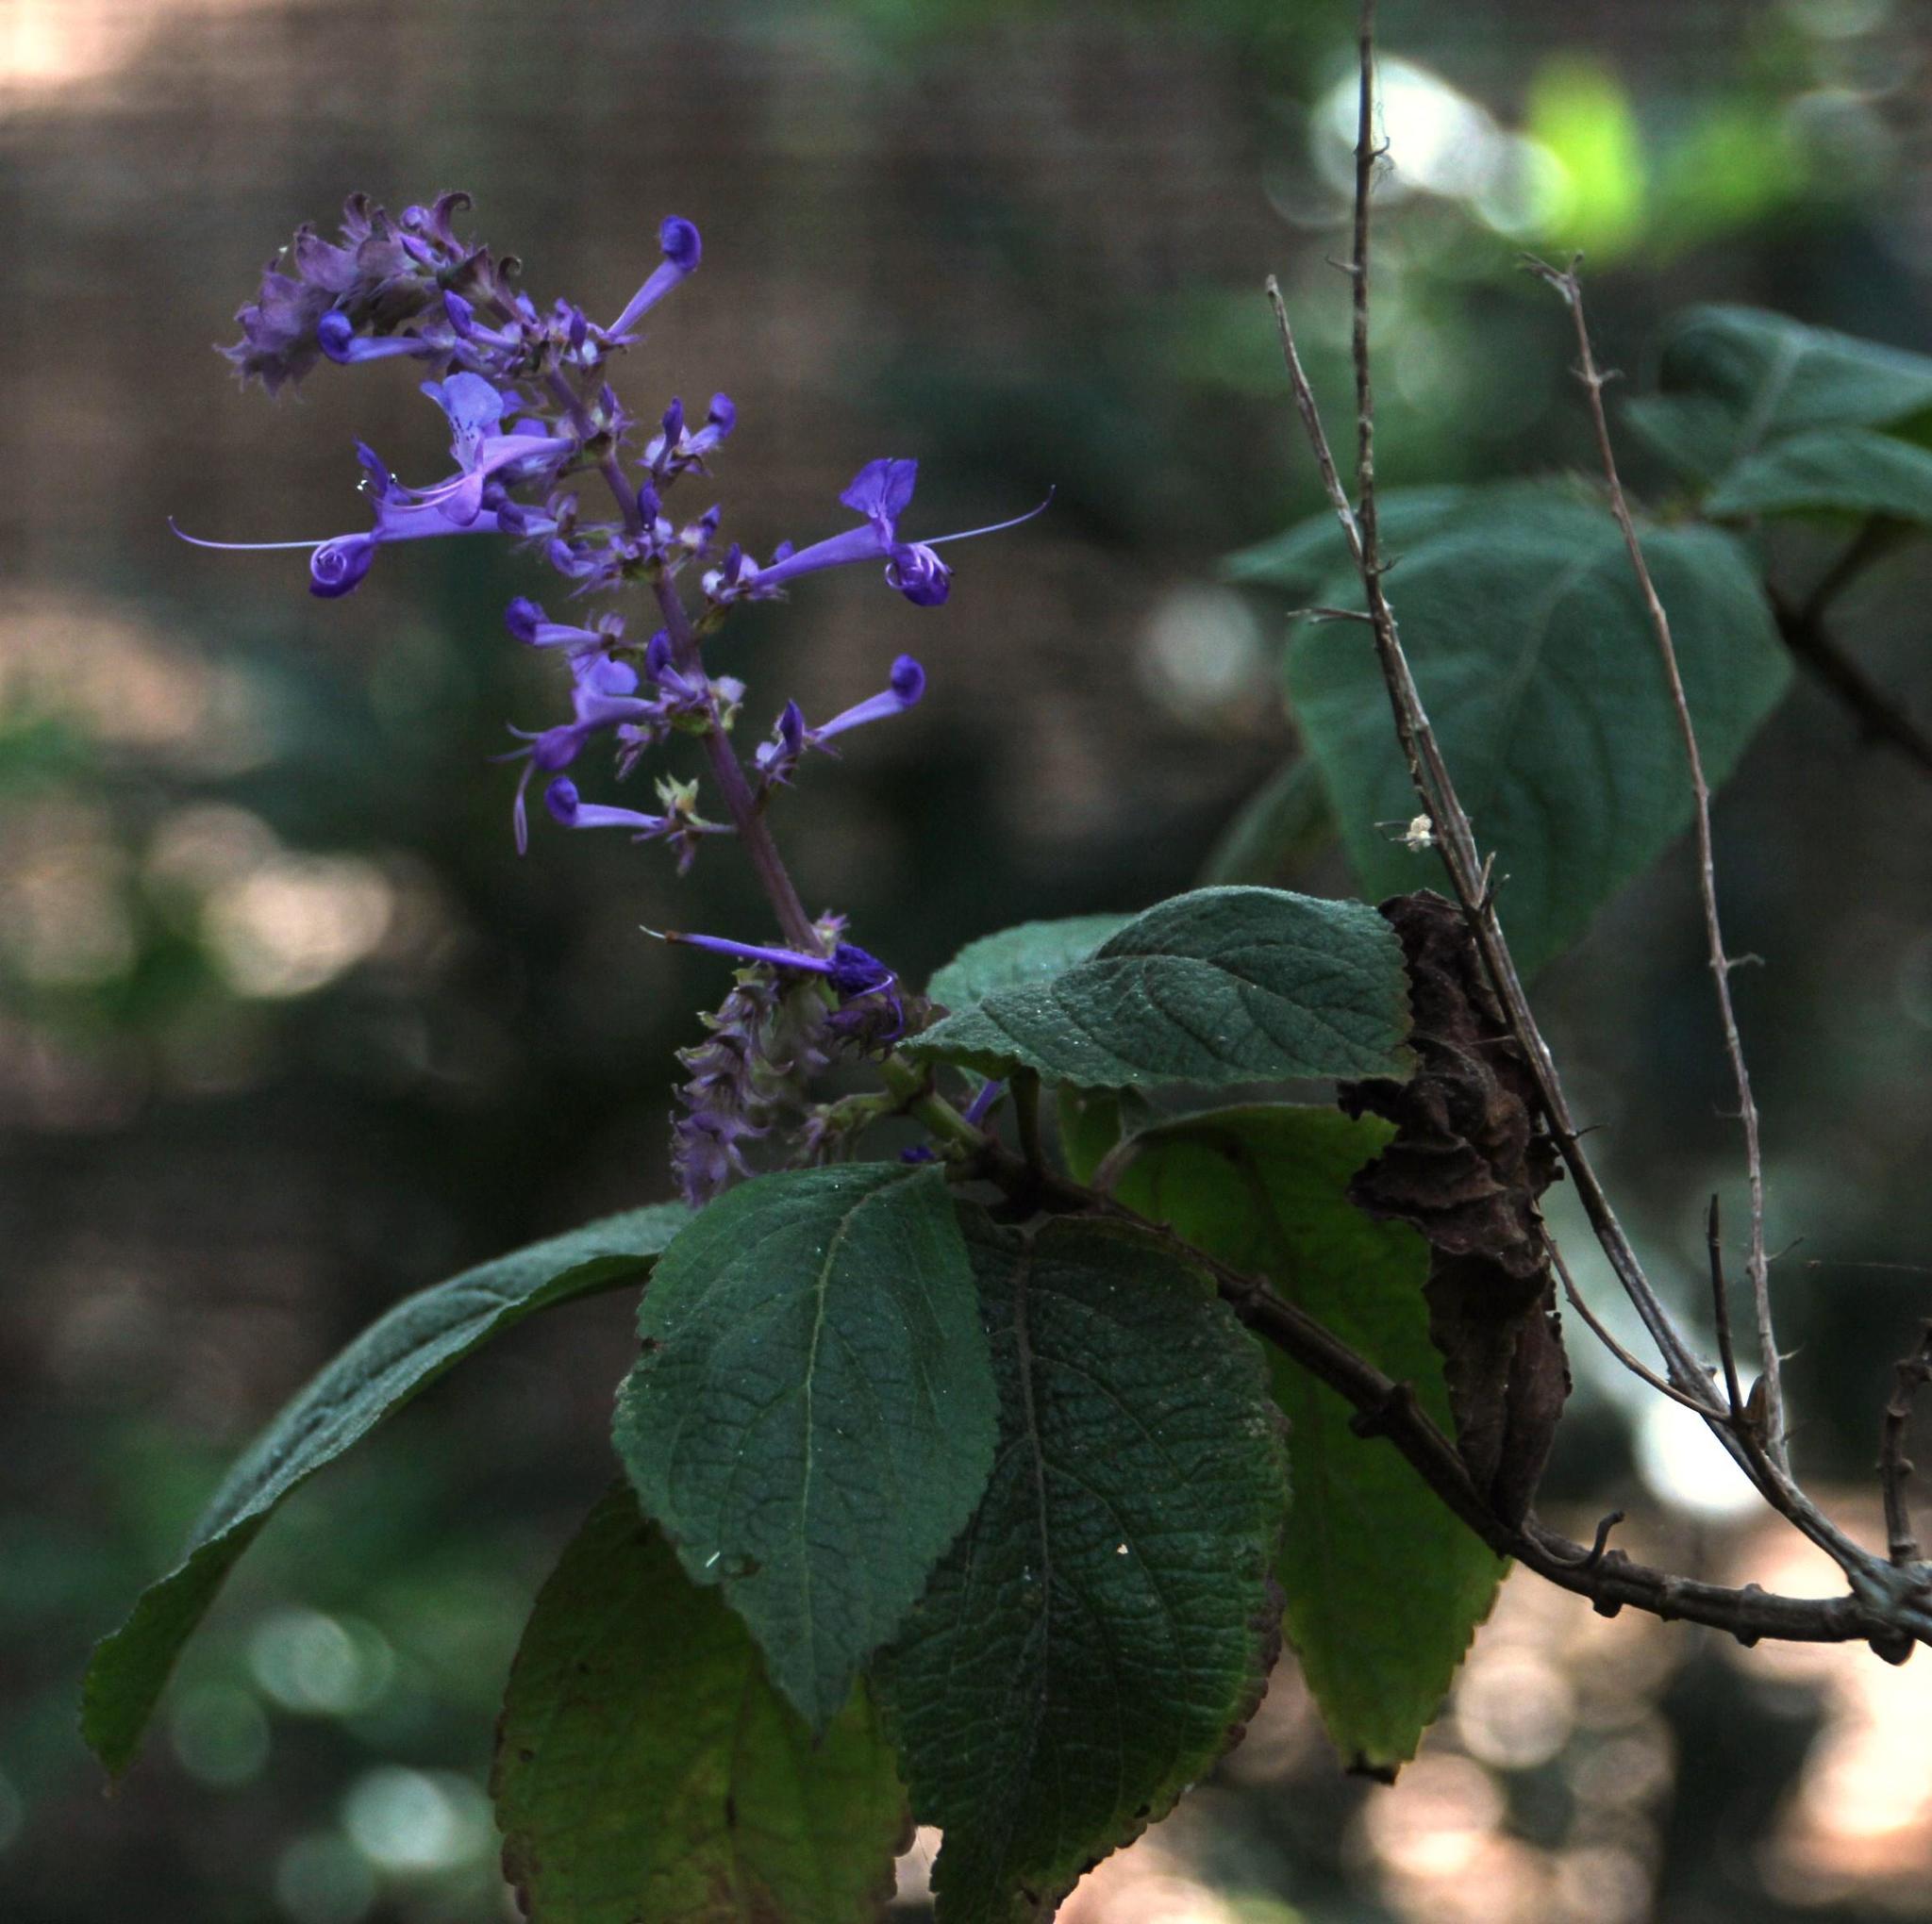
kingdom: Plantae
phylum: Tracheophyta
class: Magnoliopsida
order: Lamiales
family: Lamiaceae
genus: Plectranthus
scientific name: Plectranthus ecklonii
